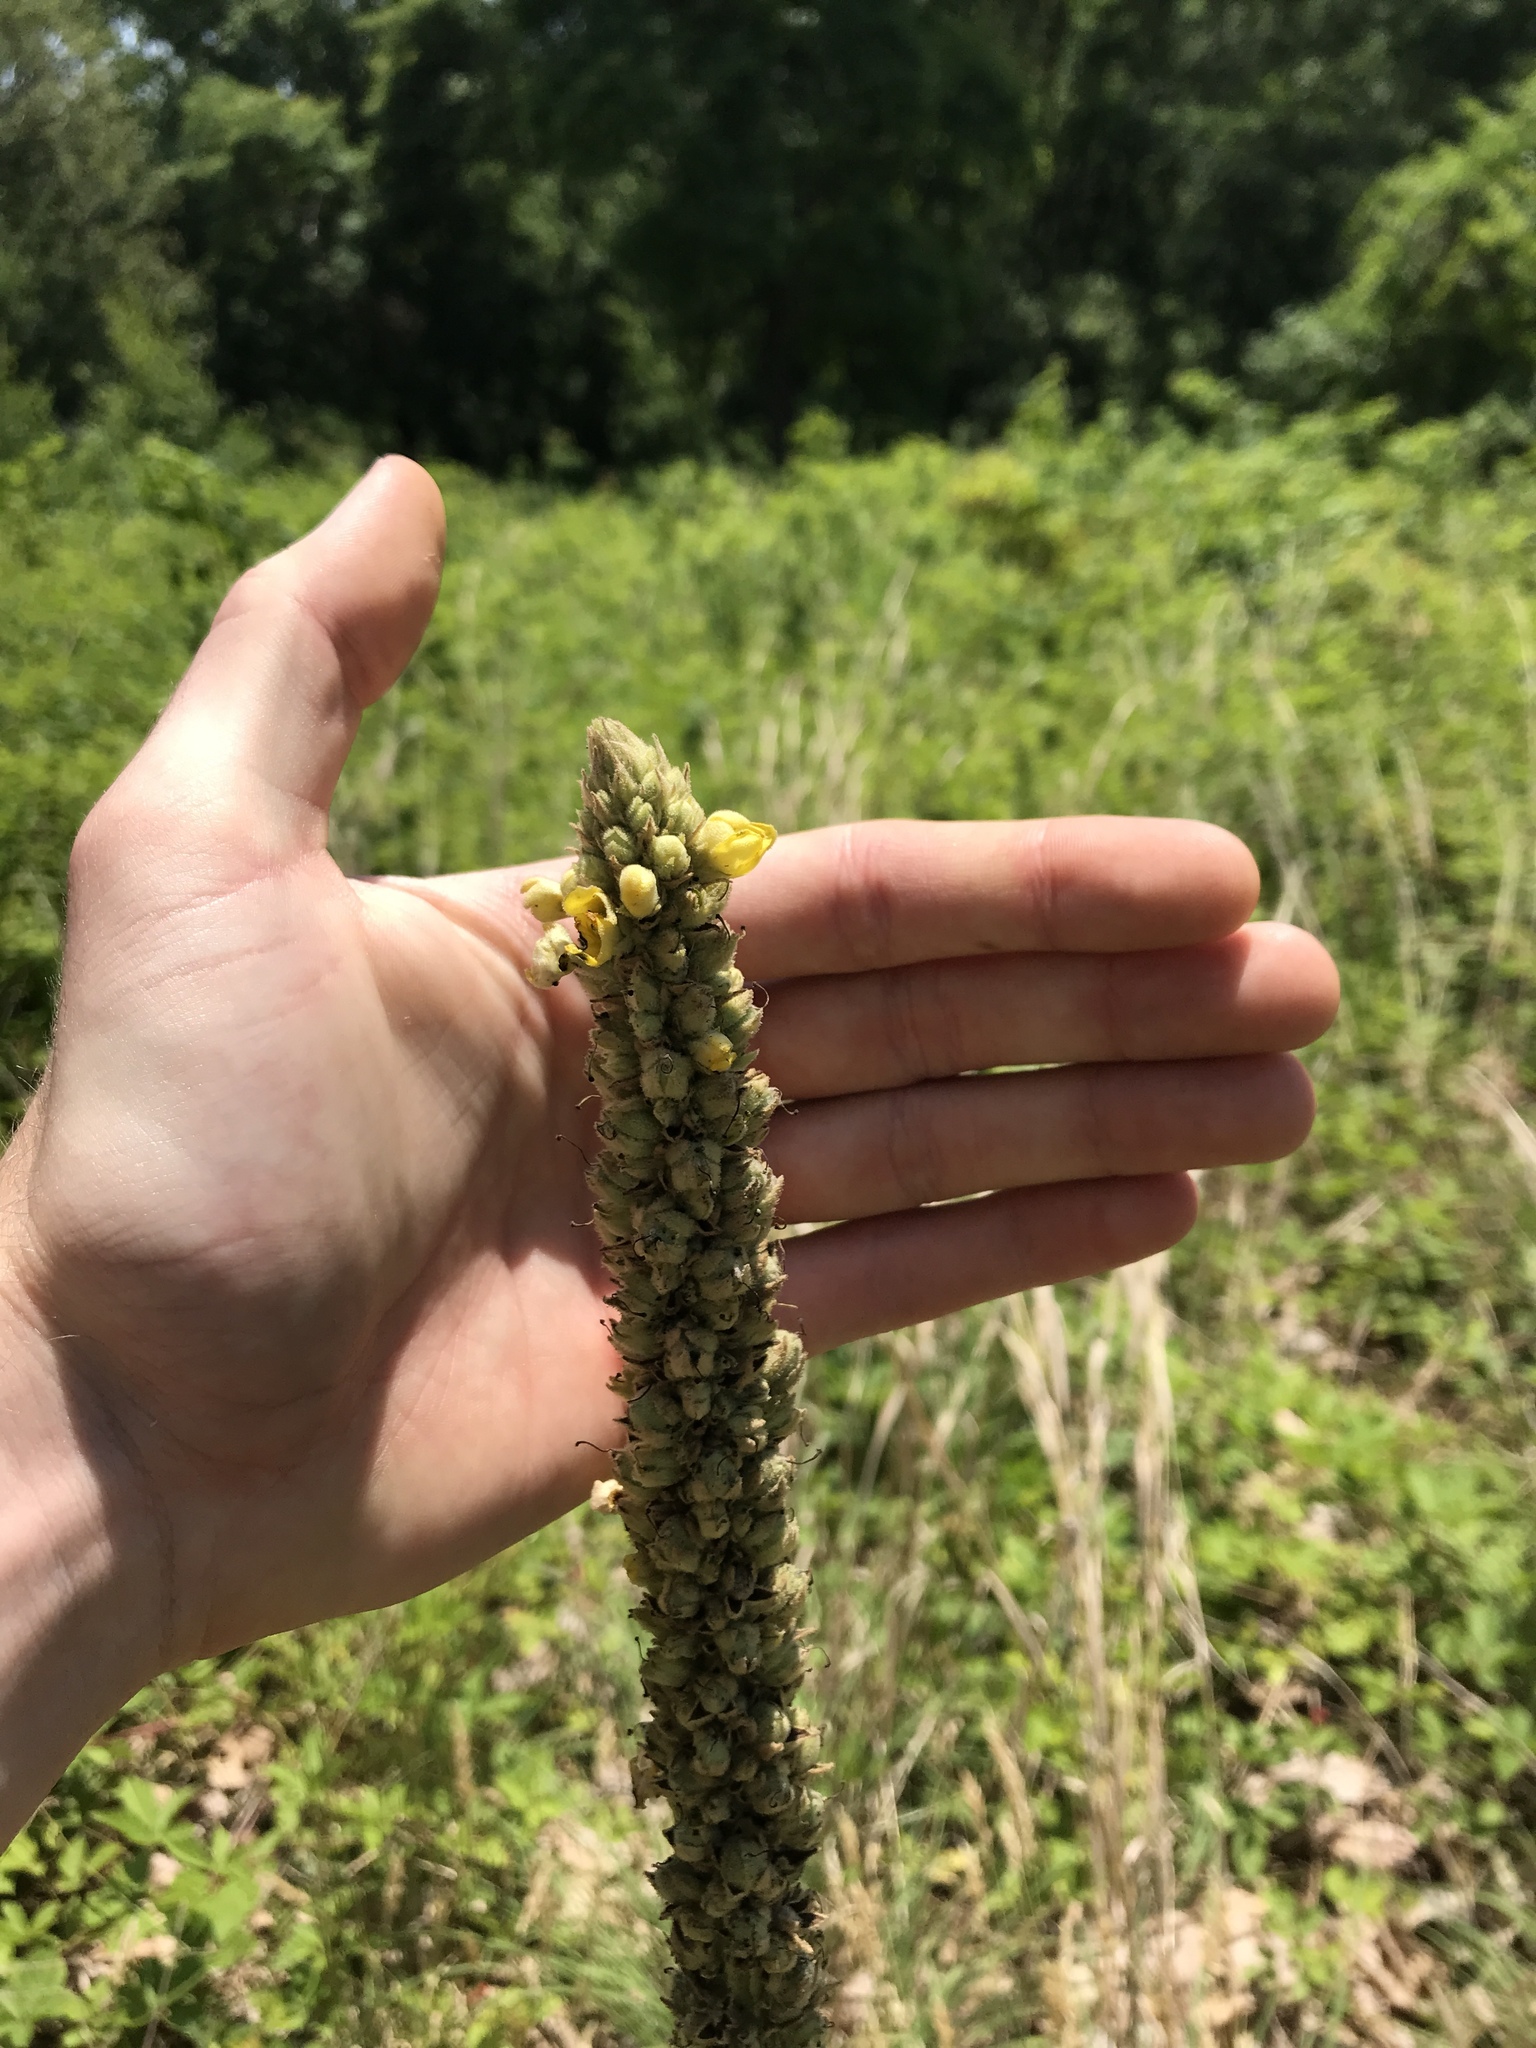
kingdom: Plantae
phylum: Tracheophyta
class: Magnoliopsida
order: Lamiales
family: Scrophulariaceae
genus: Verbascum
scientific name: Verbascum thapsus
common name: Common mullein
